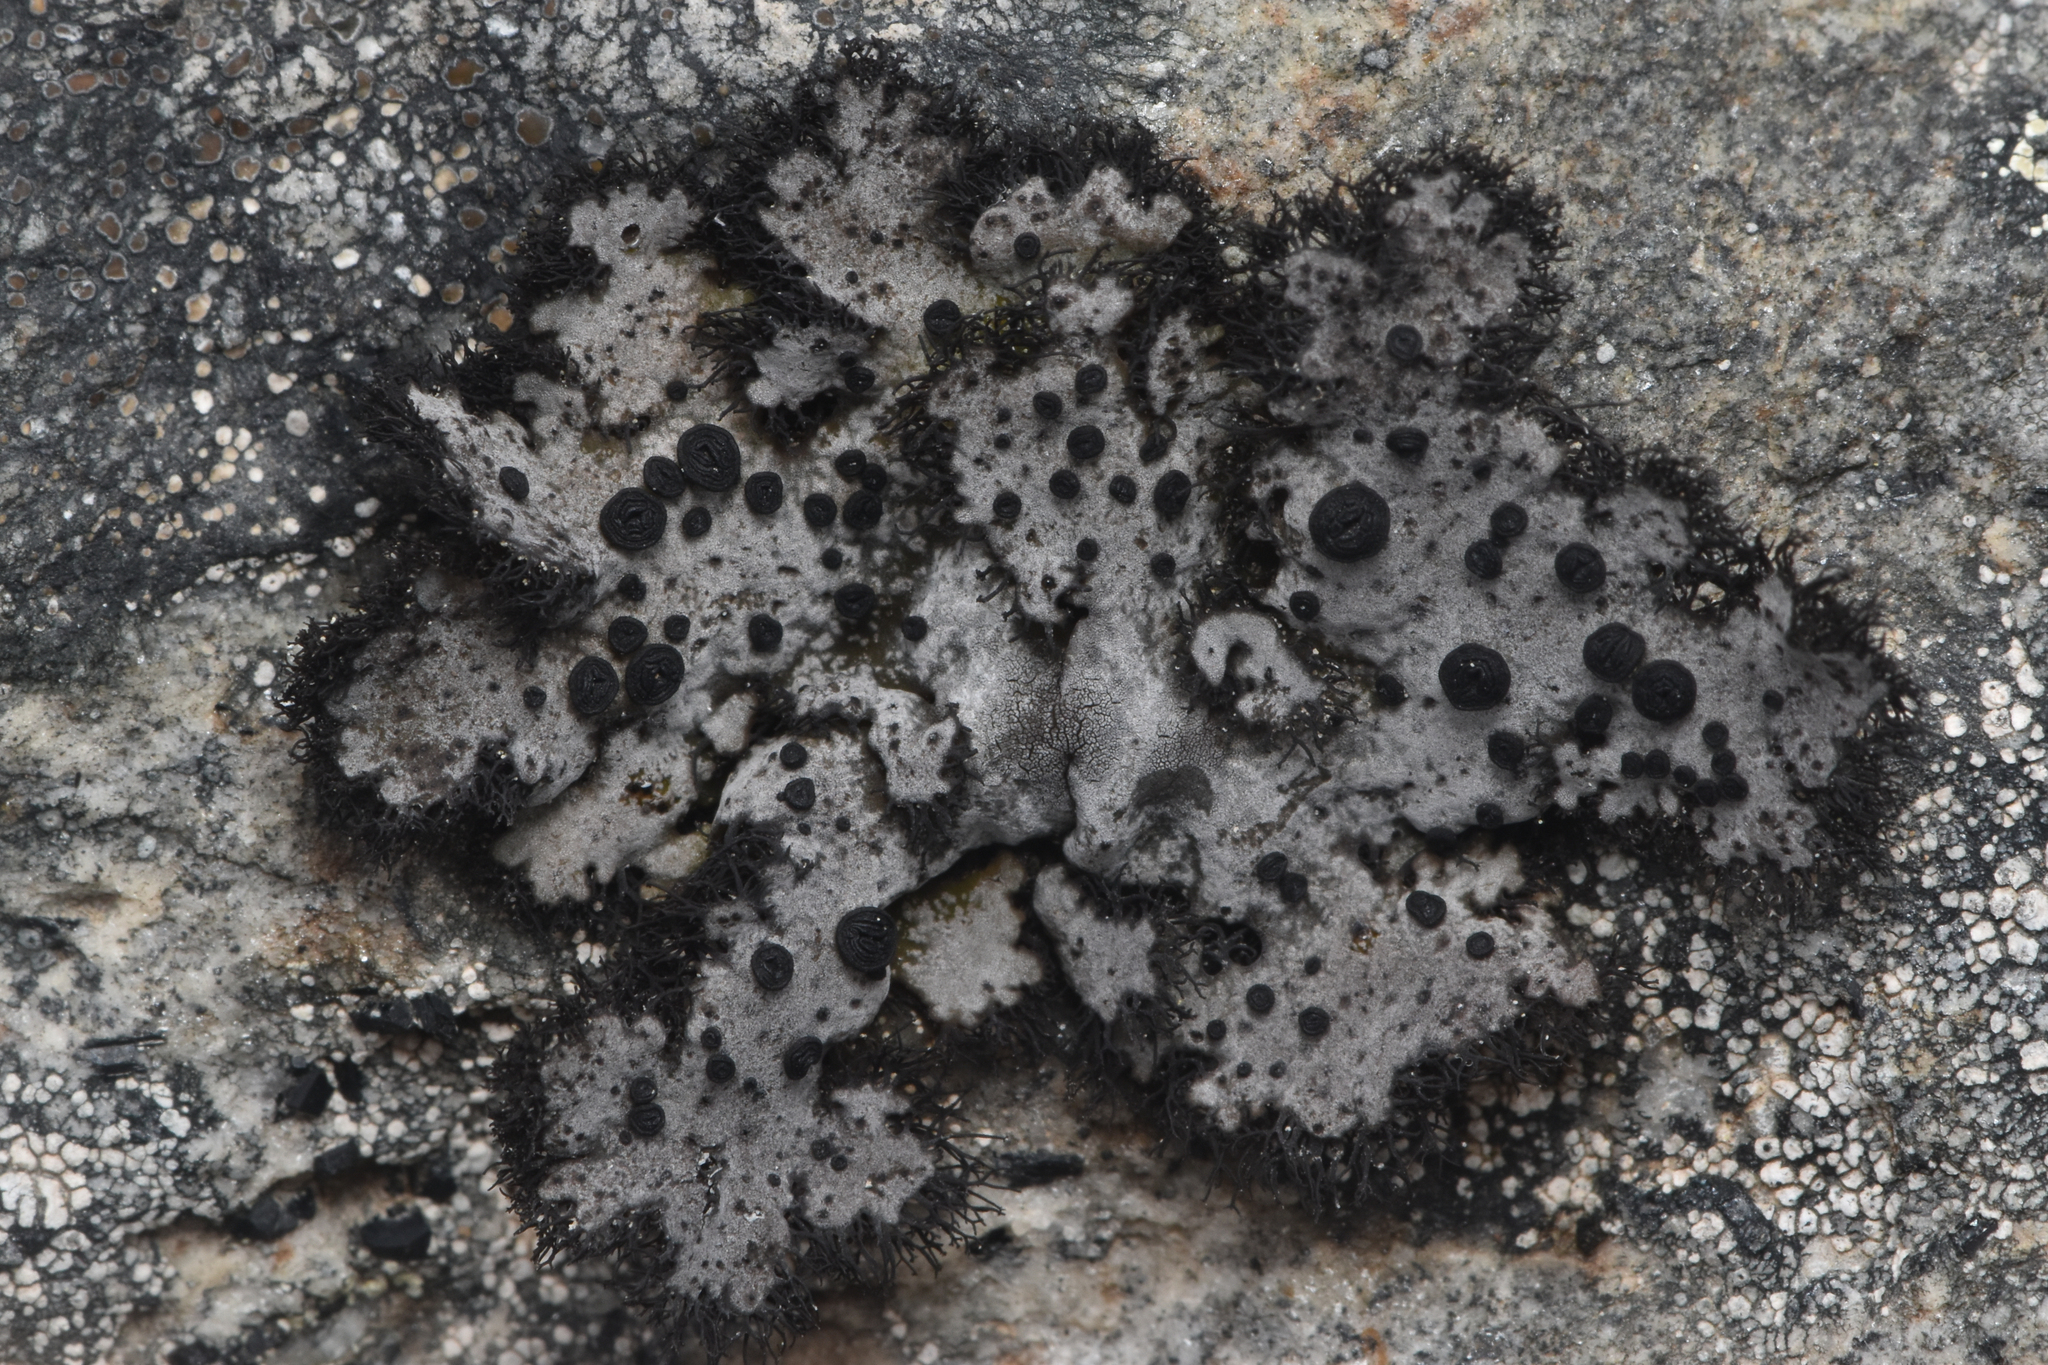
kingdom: Fungi
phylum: Ascomycota
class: Lecanoromycetes
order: Umbilicariales
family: Umbilicariaceae
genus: Umbilicaria
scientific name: Umbilicaria cylindrica
